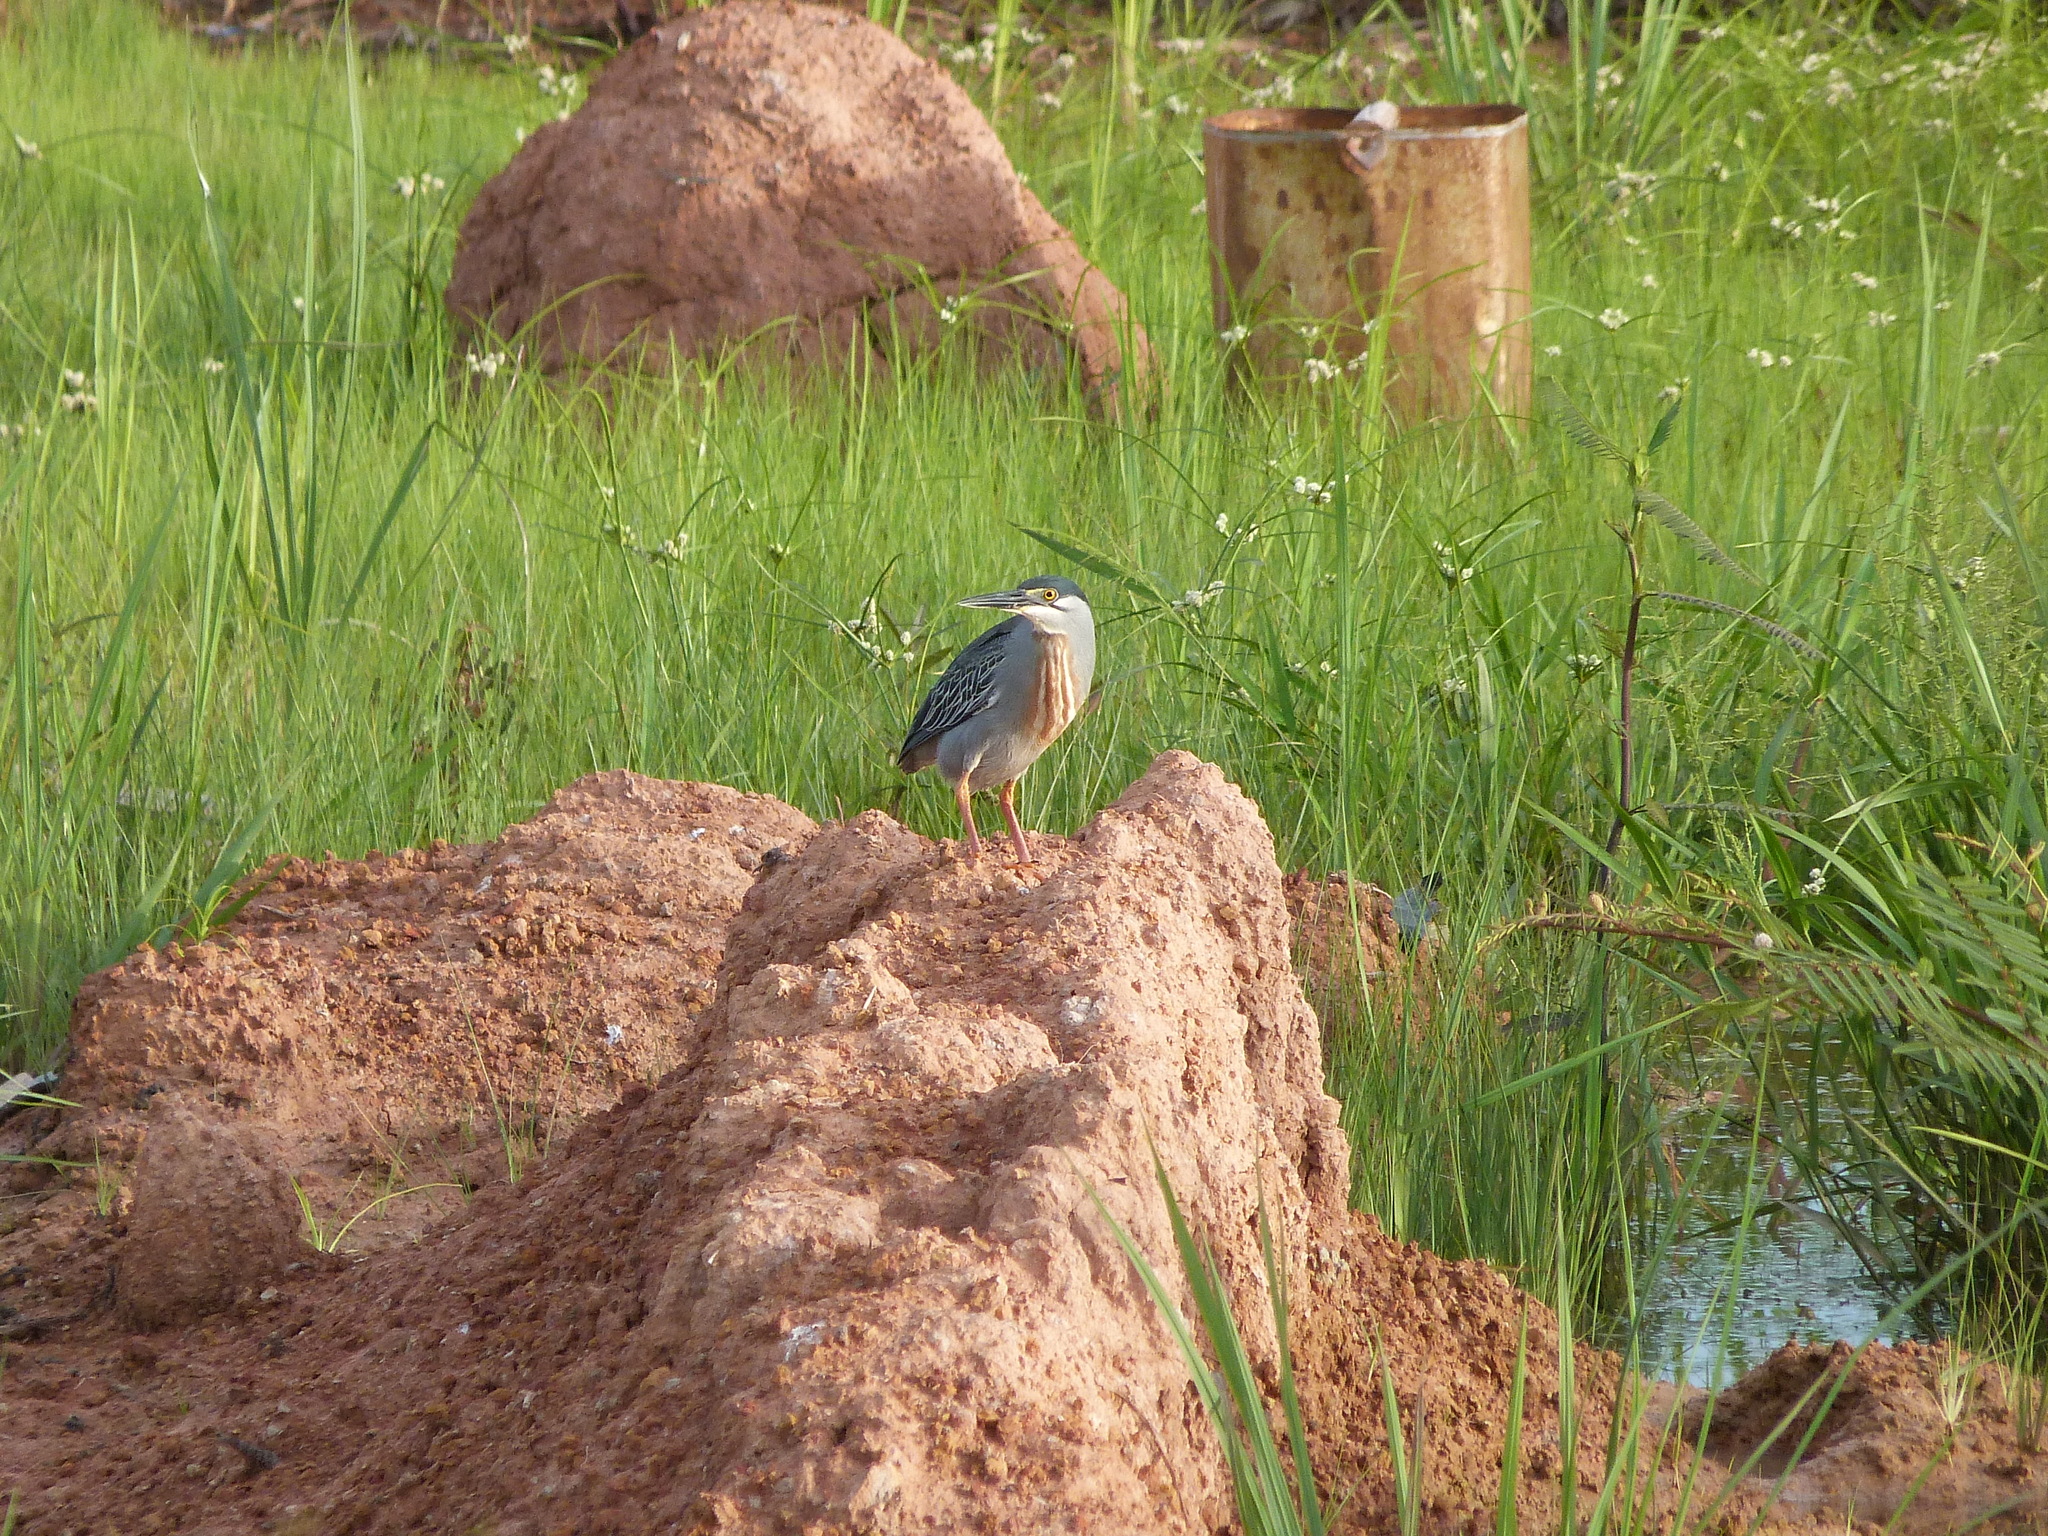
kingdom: Animalia
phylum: Chordata
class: Aves
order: Pelecaniformes
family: Ardeidae
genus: Butorides
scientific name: Butorides striata
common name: Striated heron
